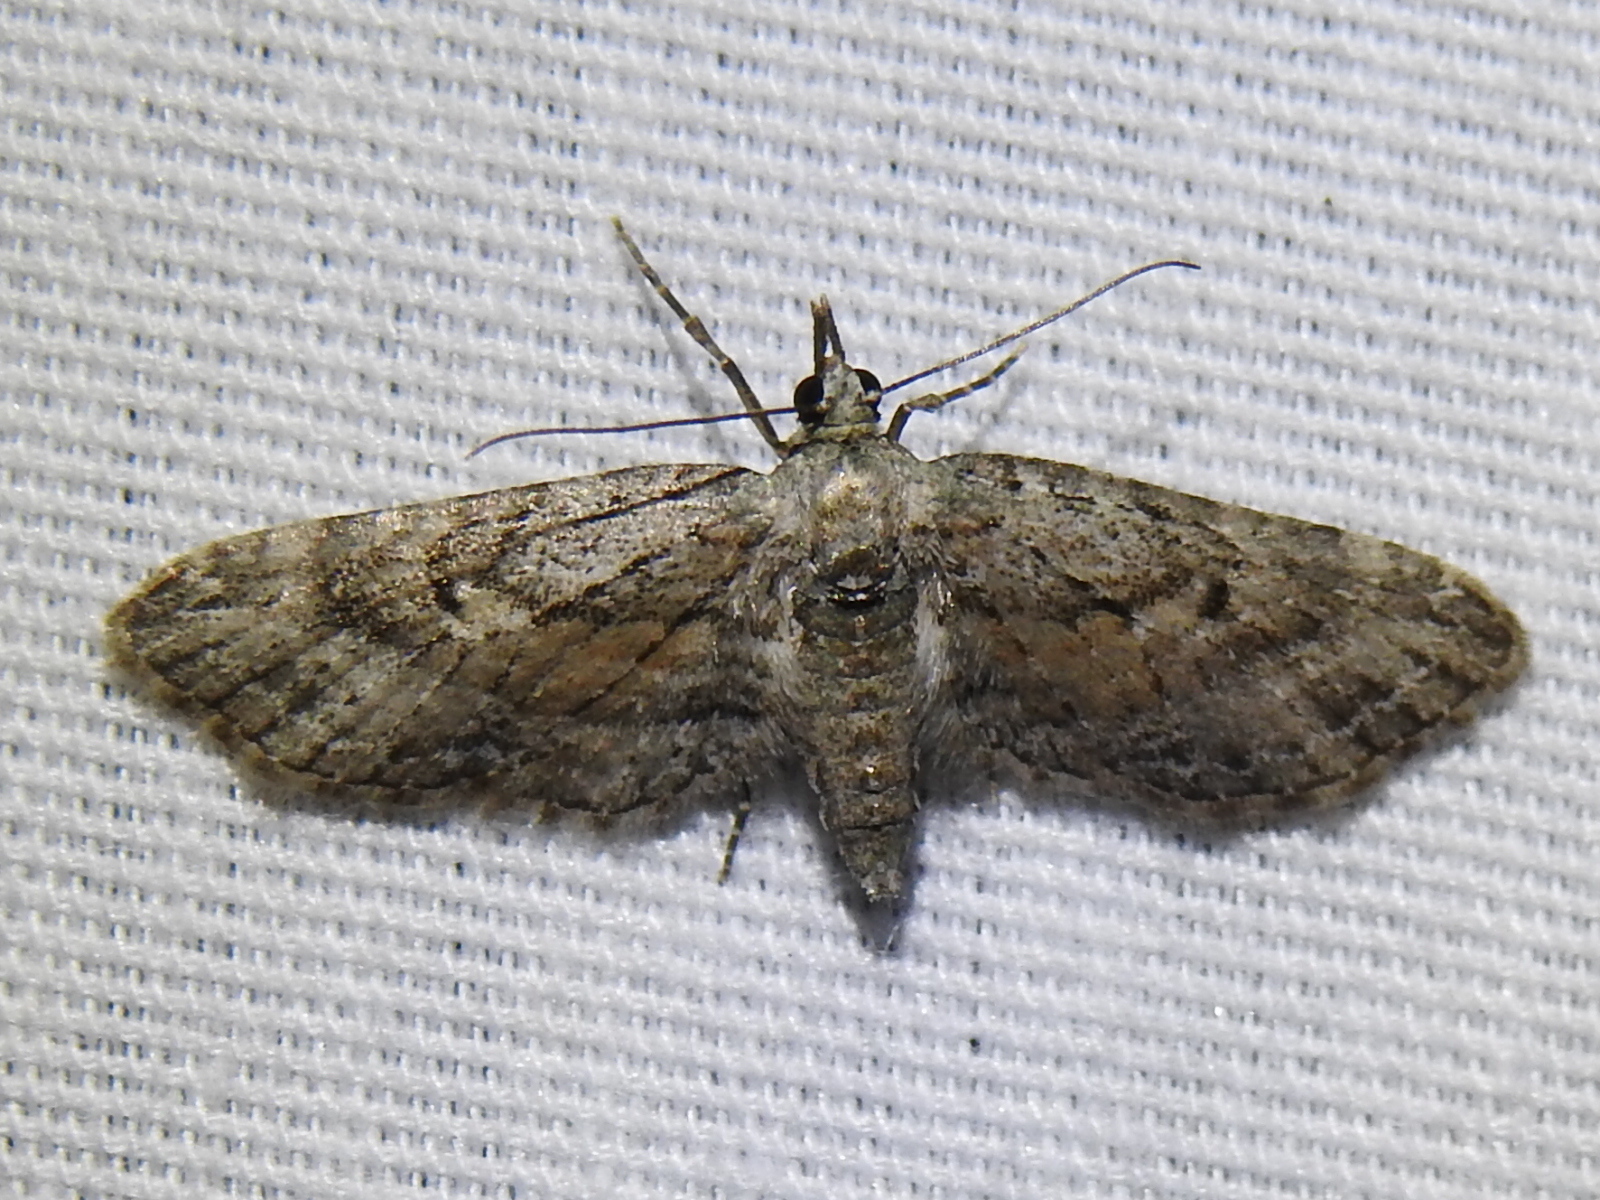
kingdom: Animalia
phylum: Arthropoda
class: Insecta
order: Lepidoptera
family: Geometridae
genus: Eupithecia
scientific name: Eupithecia longidens
